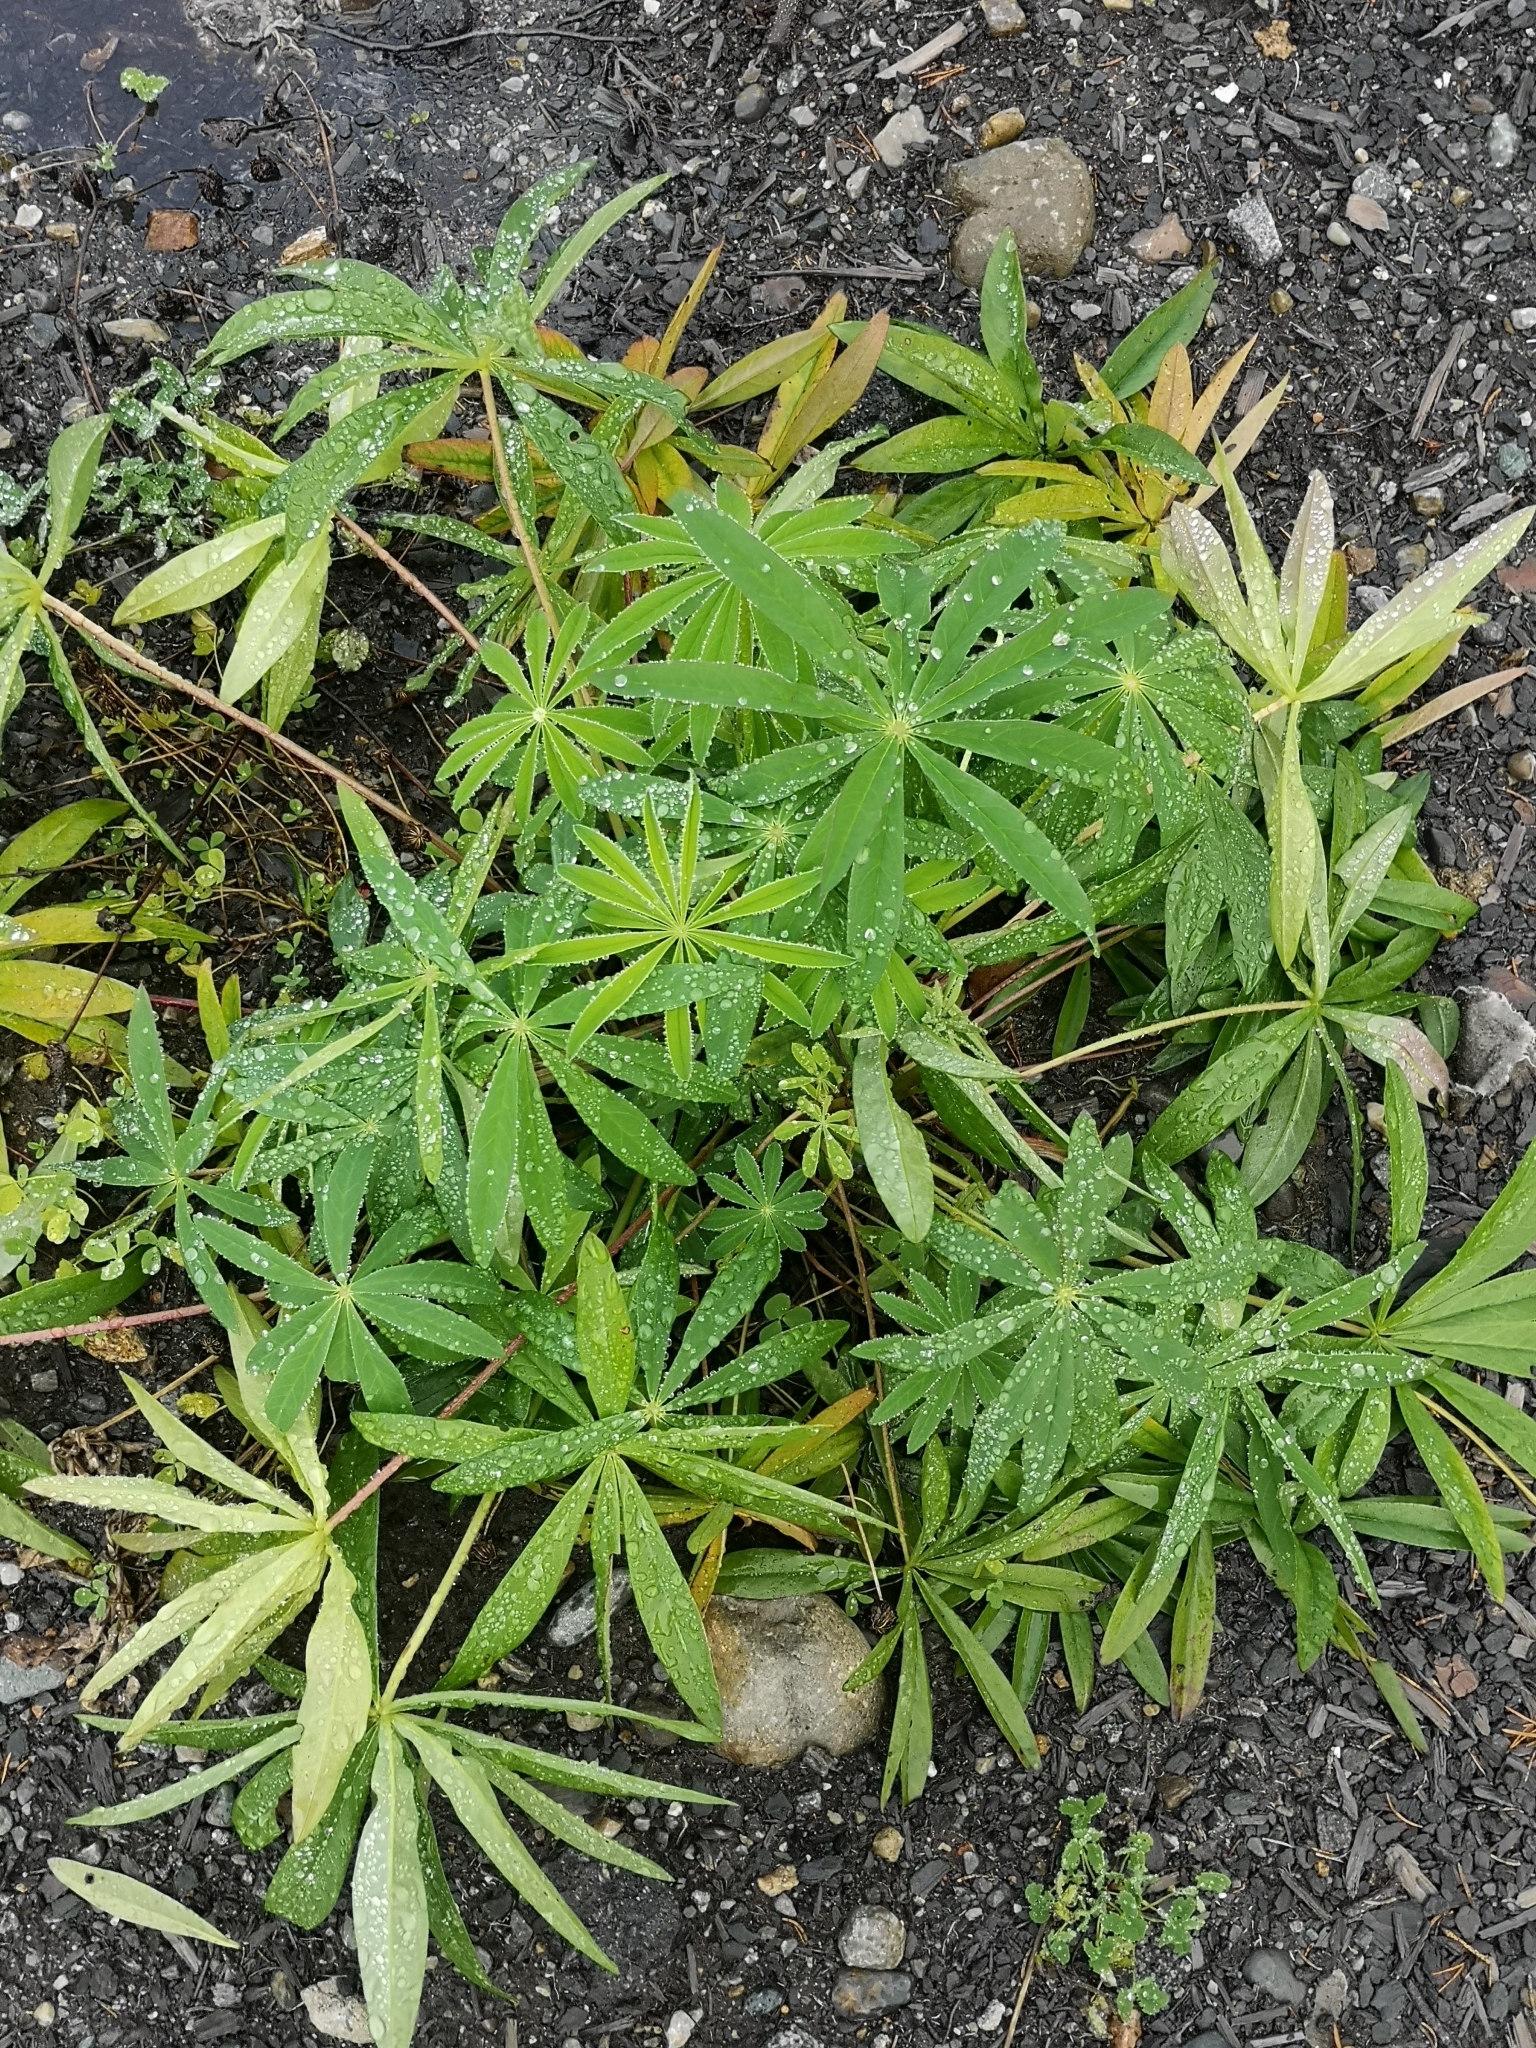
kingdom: Plantae
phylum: Tracheophyta
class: Magnoliopsida
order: Fabales
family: Fabaceae
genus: Lupinus
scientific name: Lupinus polyphyllus
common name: Garden lupin
